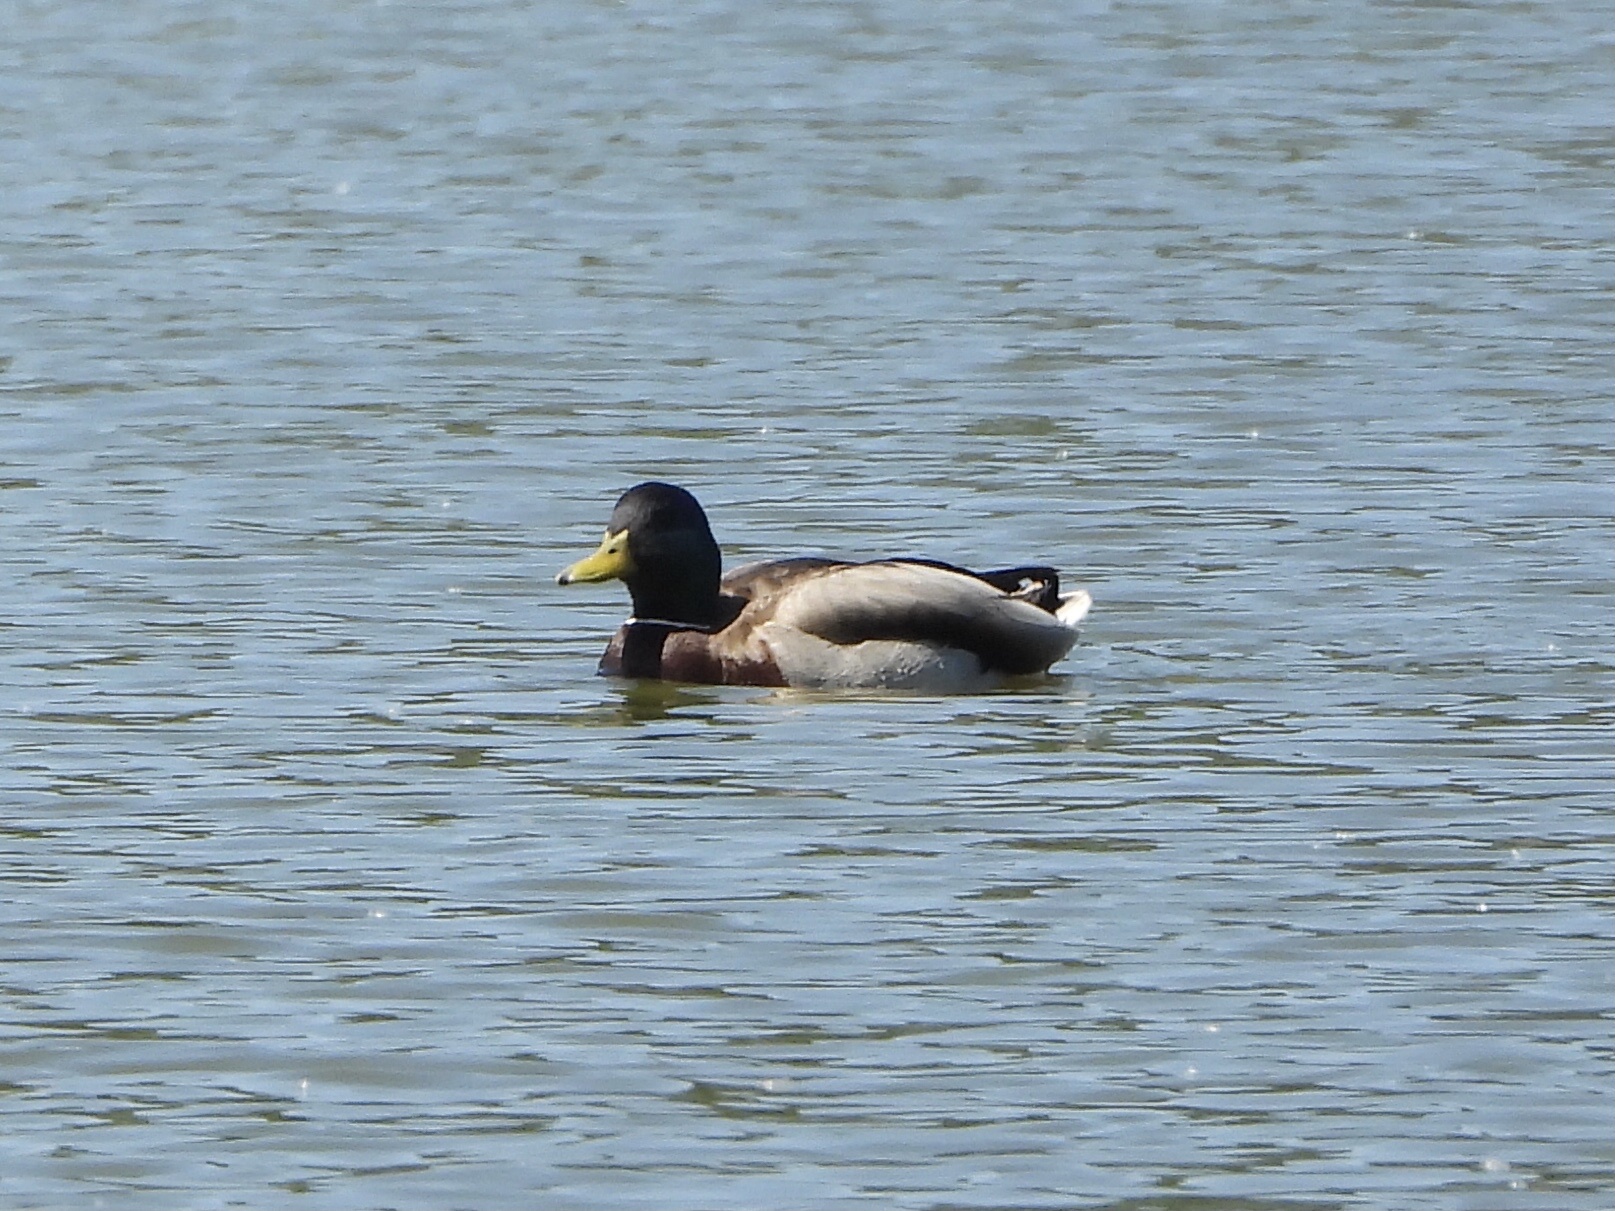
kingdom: Animalia
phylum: Chordata
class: Aves
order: Anseriformes
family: Anatidae
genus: Anas
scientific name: Anas platyrhynchos
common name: Mallard
